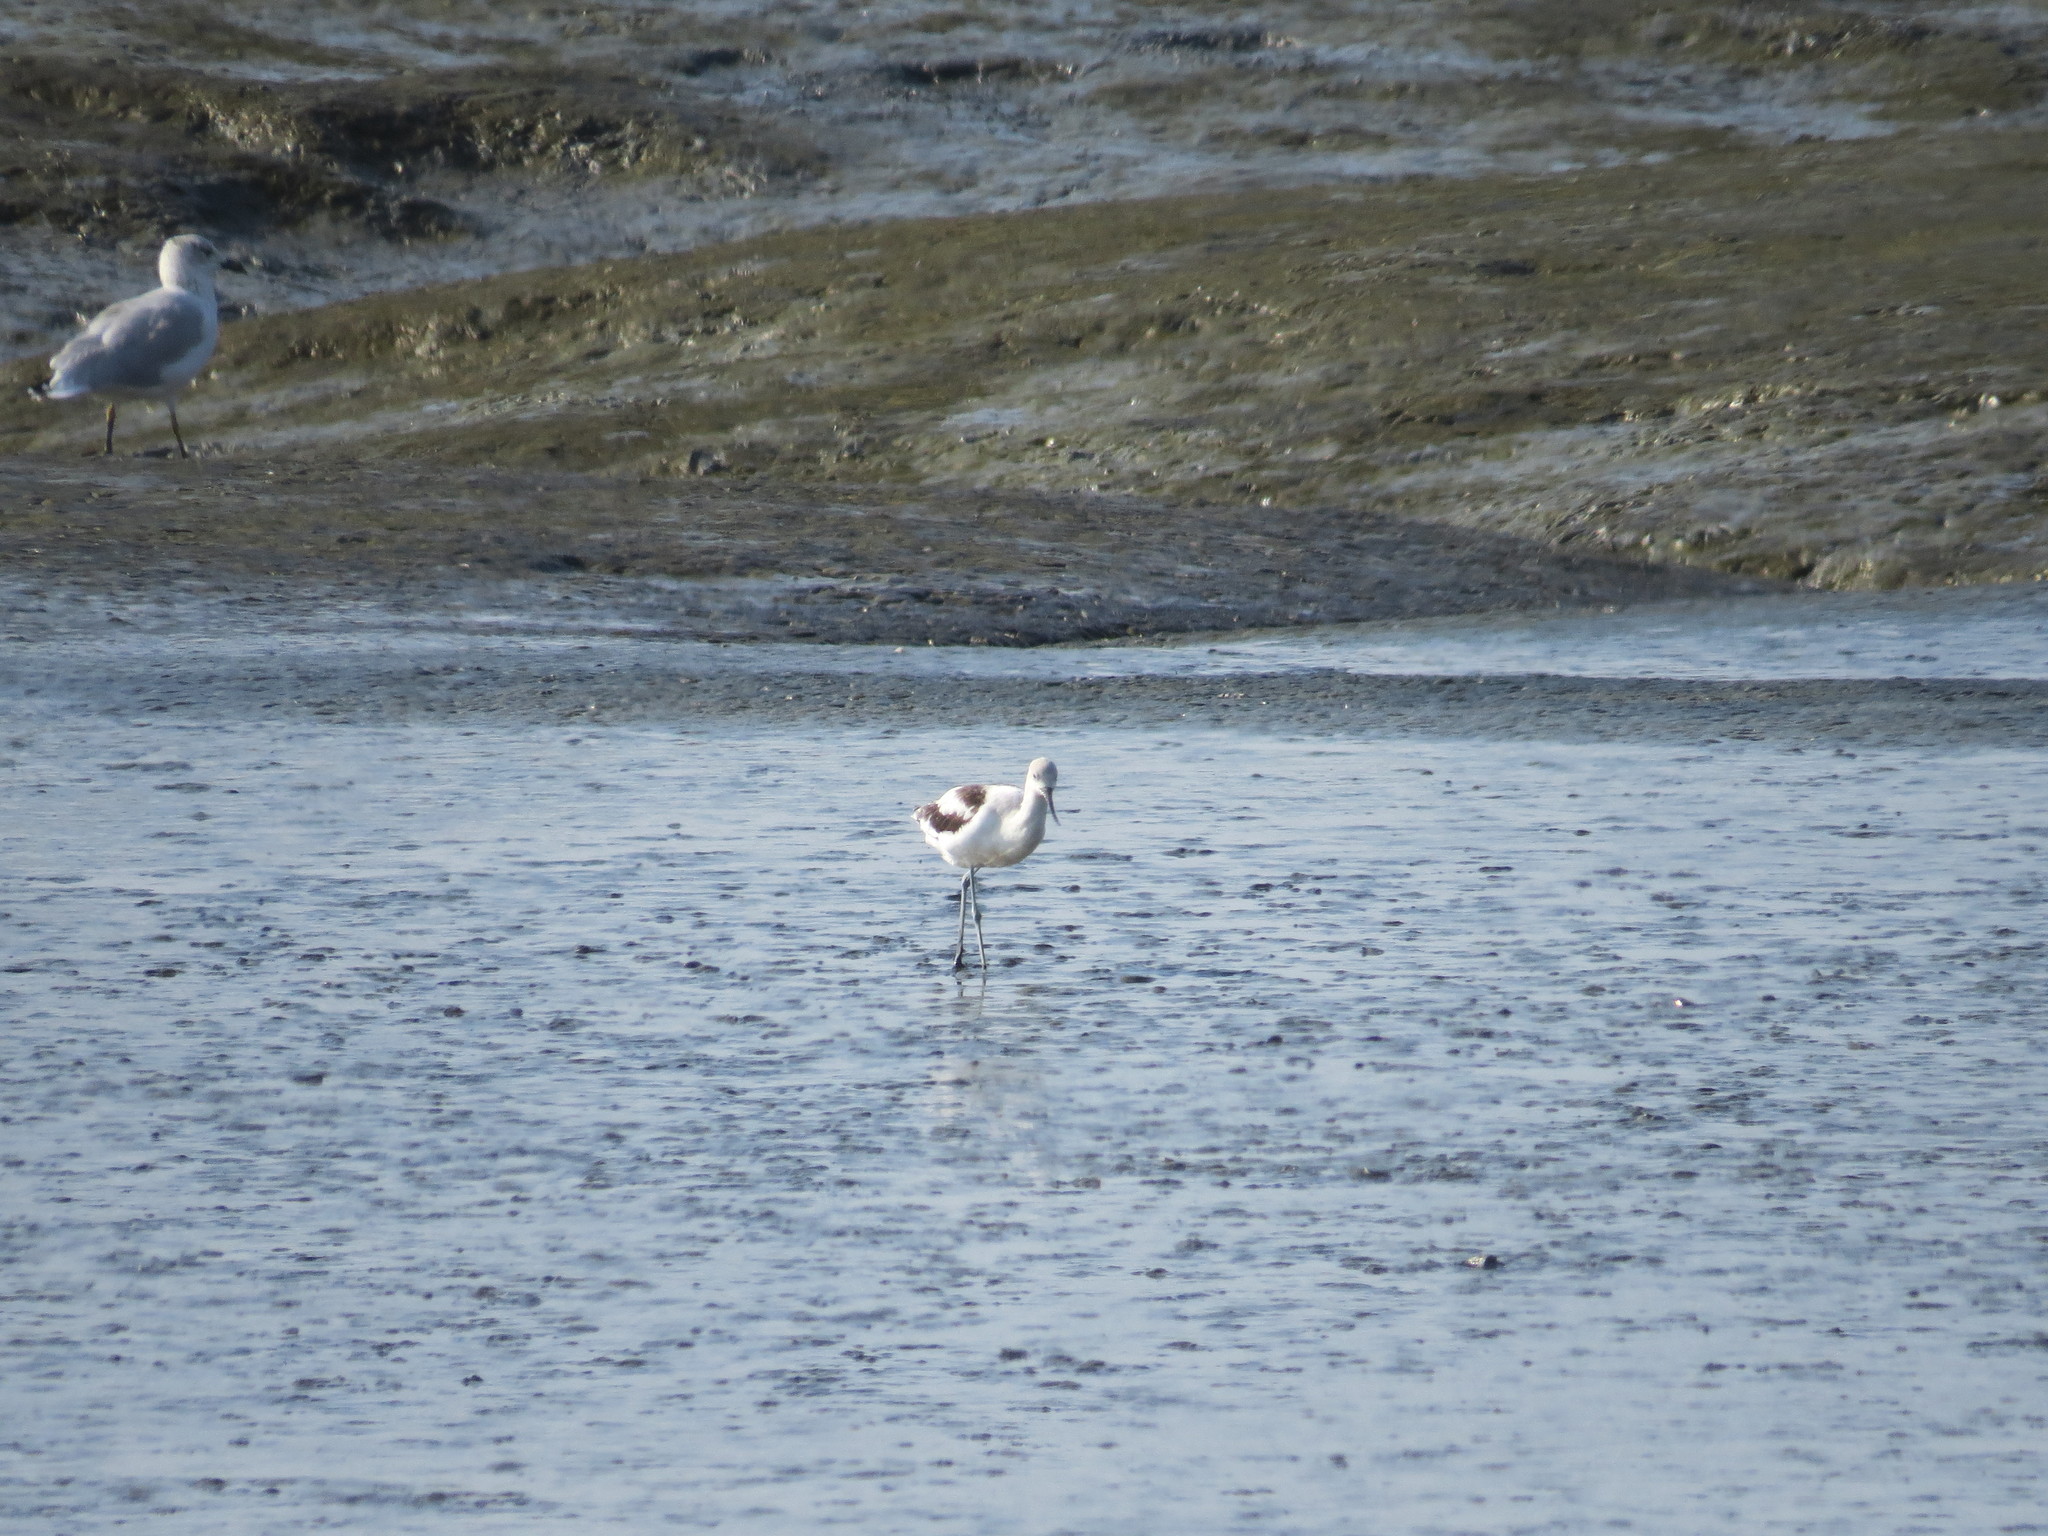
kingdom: Animalia
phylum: Chordata
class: Aves
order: Charadriiformes
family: Recurvirostridae
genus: Recurvirostra
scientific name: Recurvirostra americana
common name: American avocet
